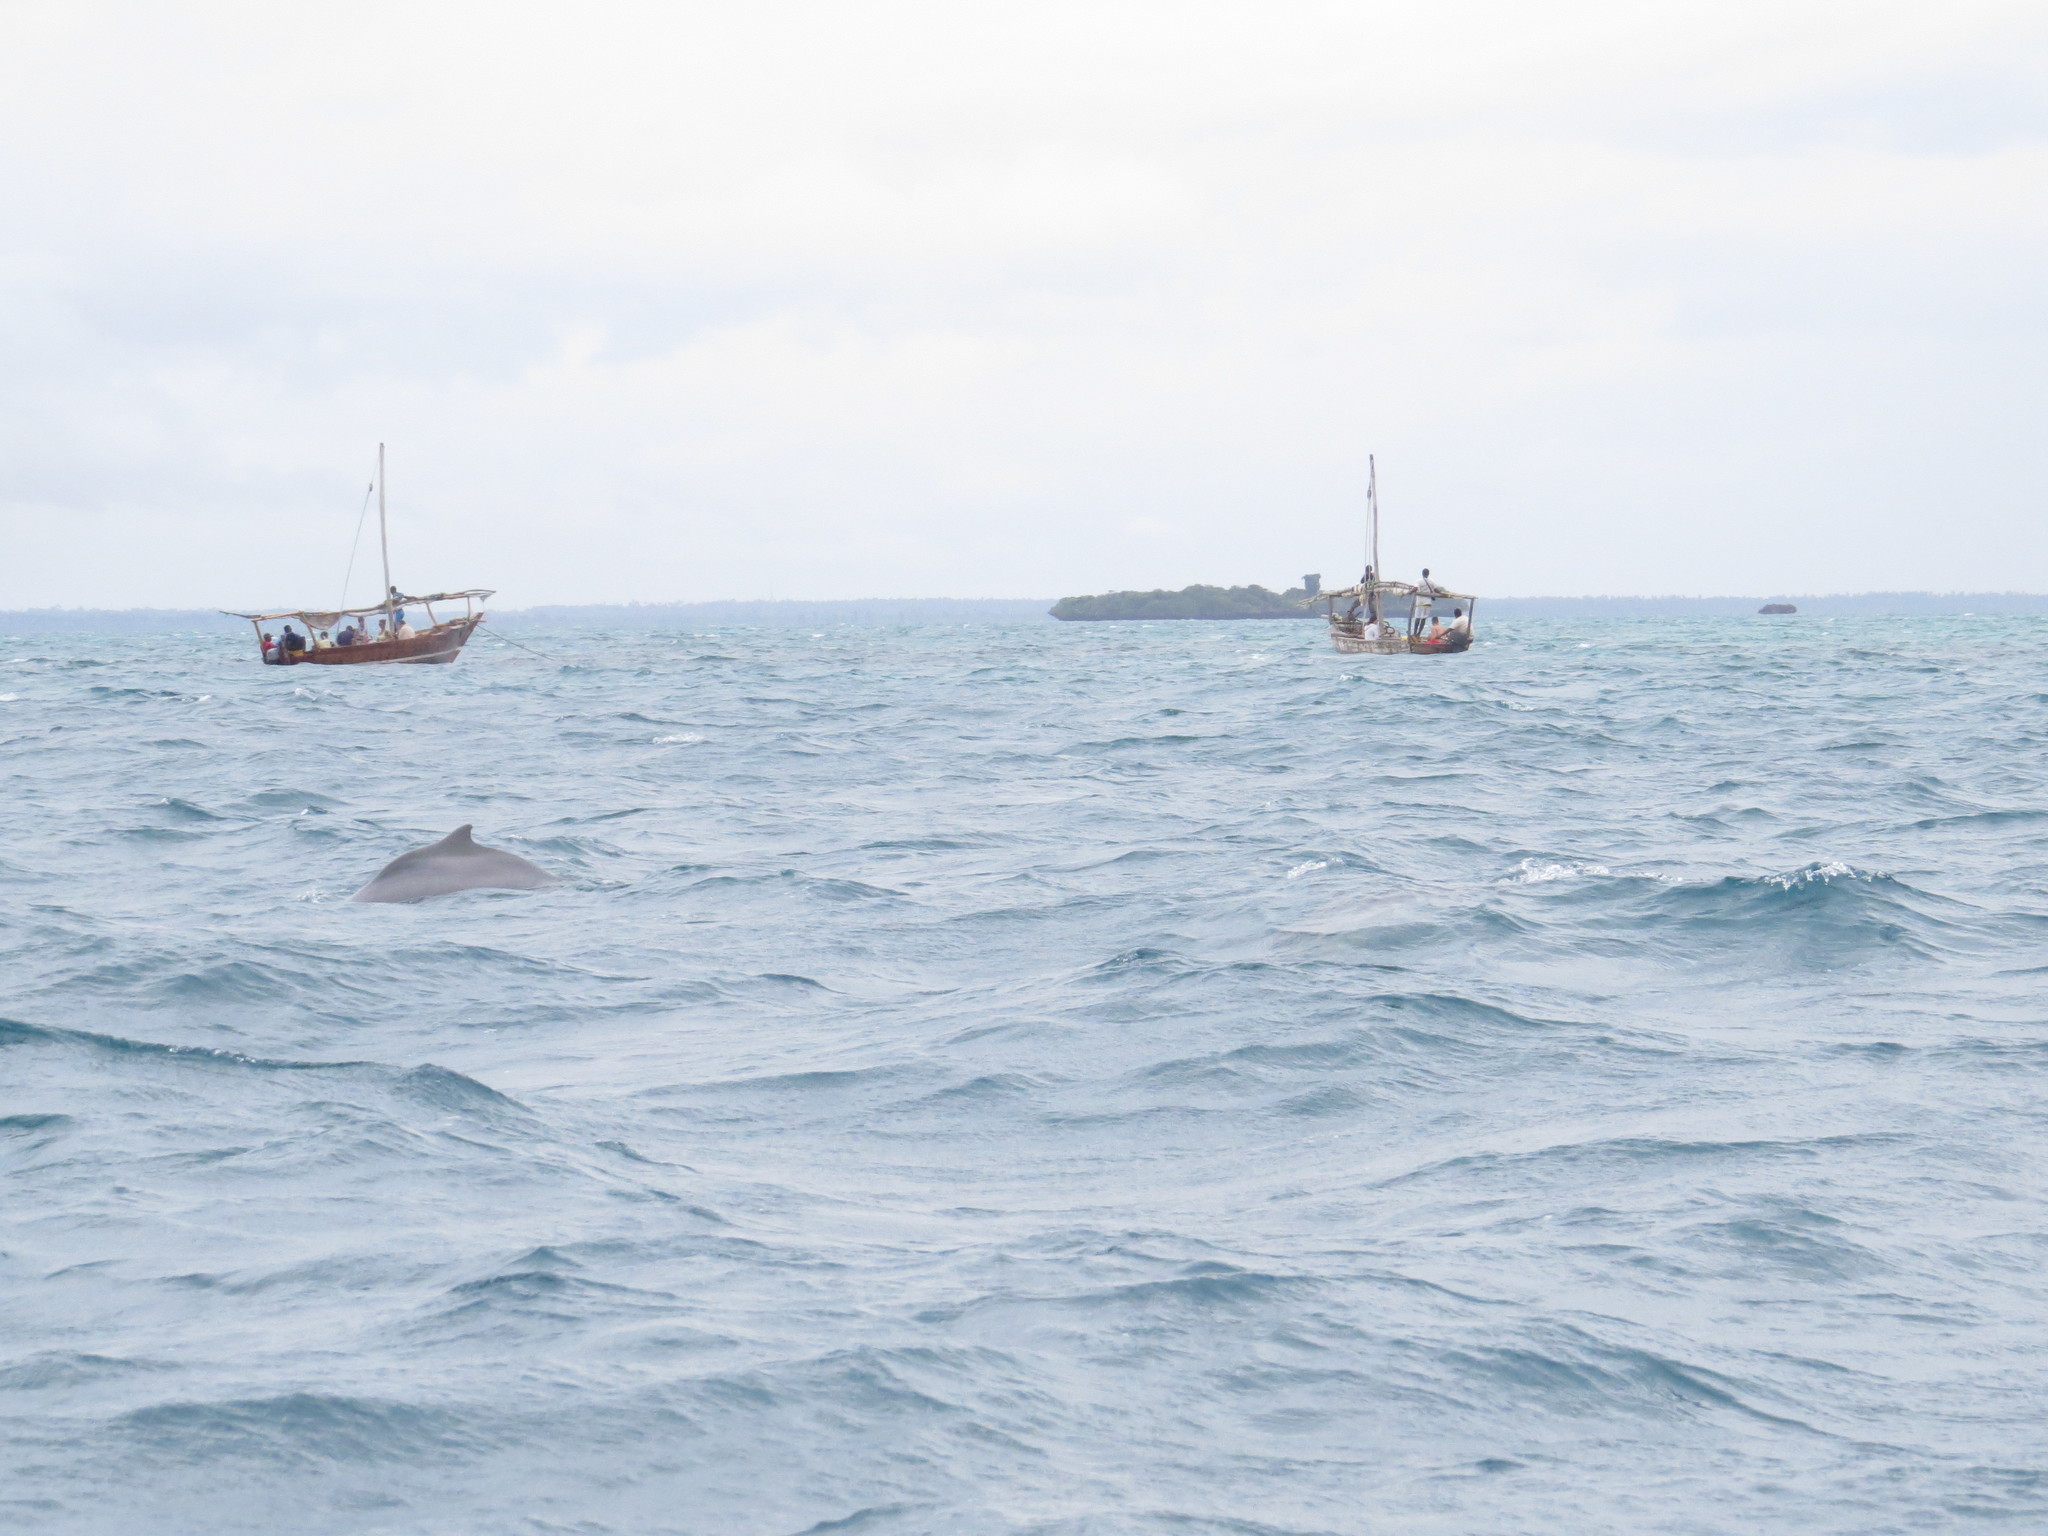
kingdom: Animalia
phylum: Chordata
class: Mammalia
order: Cetacea
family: Delphinidae
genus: Sousa
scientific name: Sousa plumbea
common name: Indian ocean humpback dolphin
